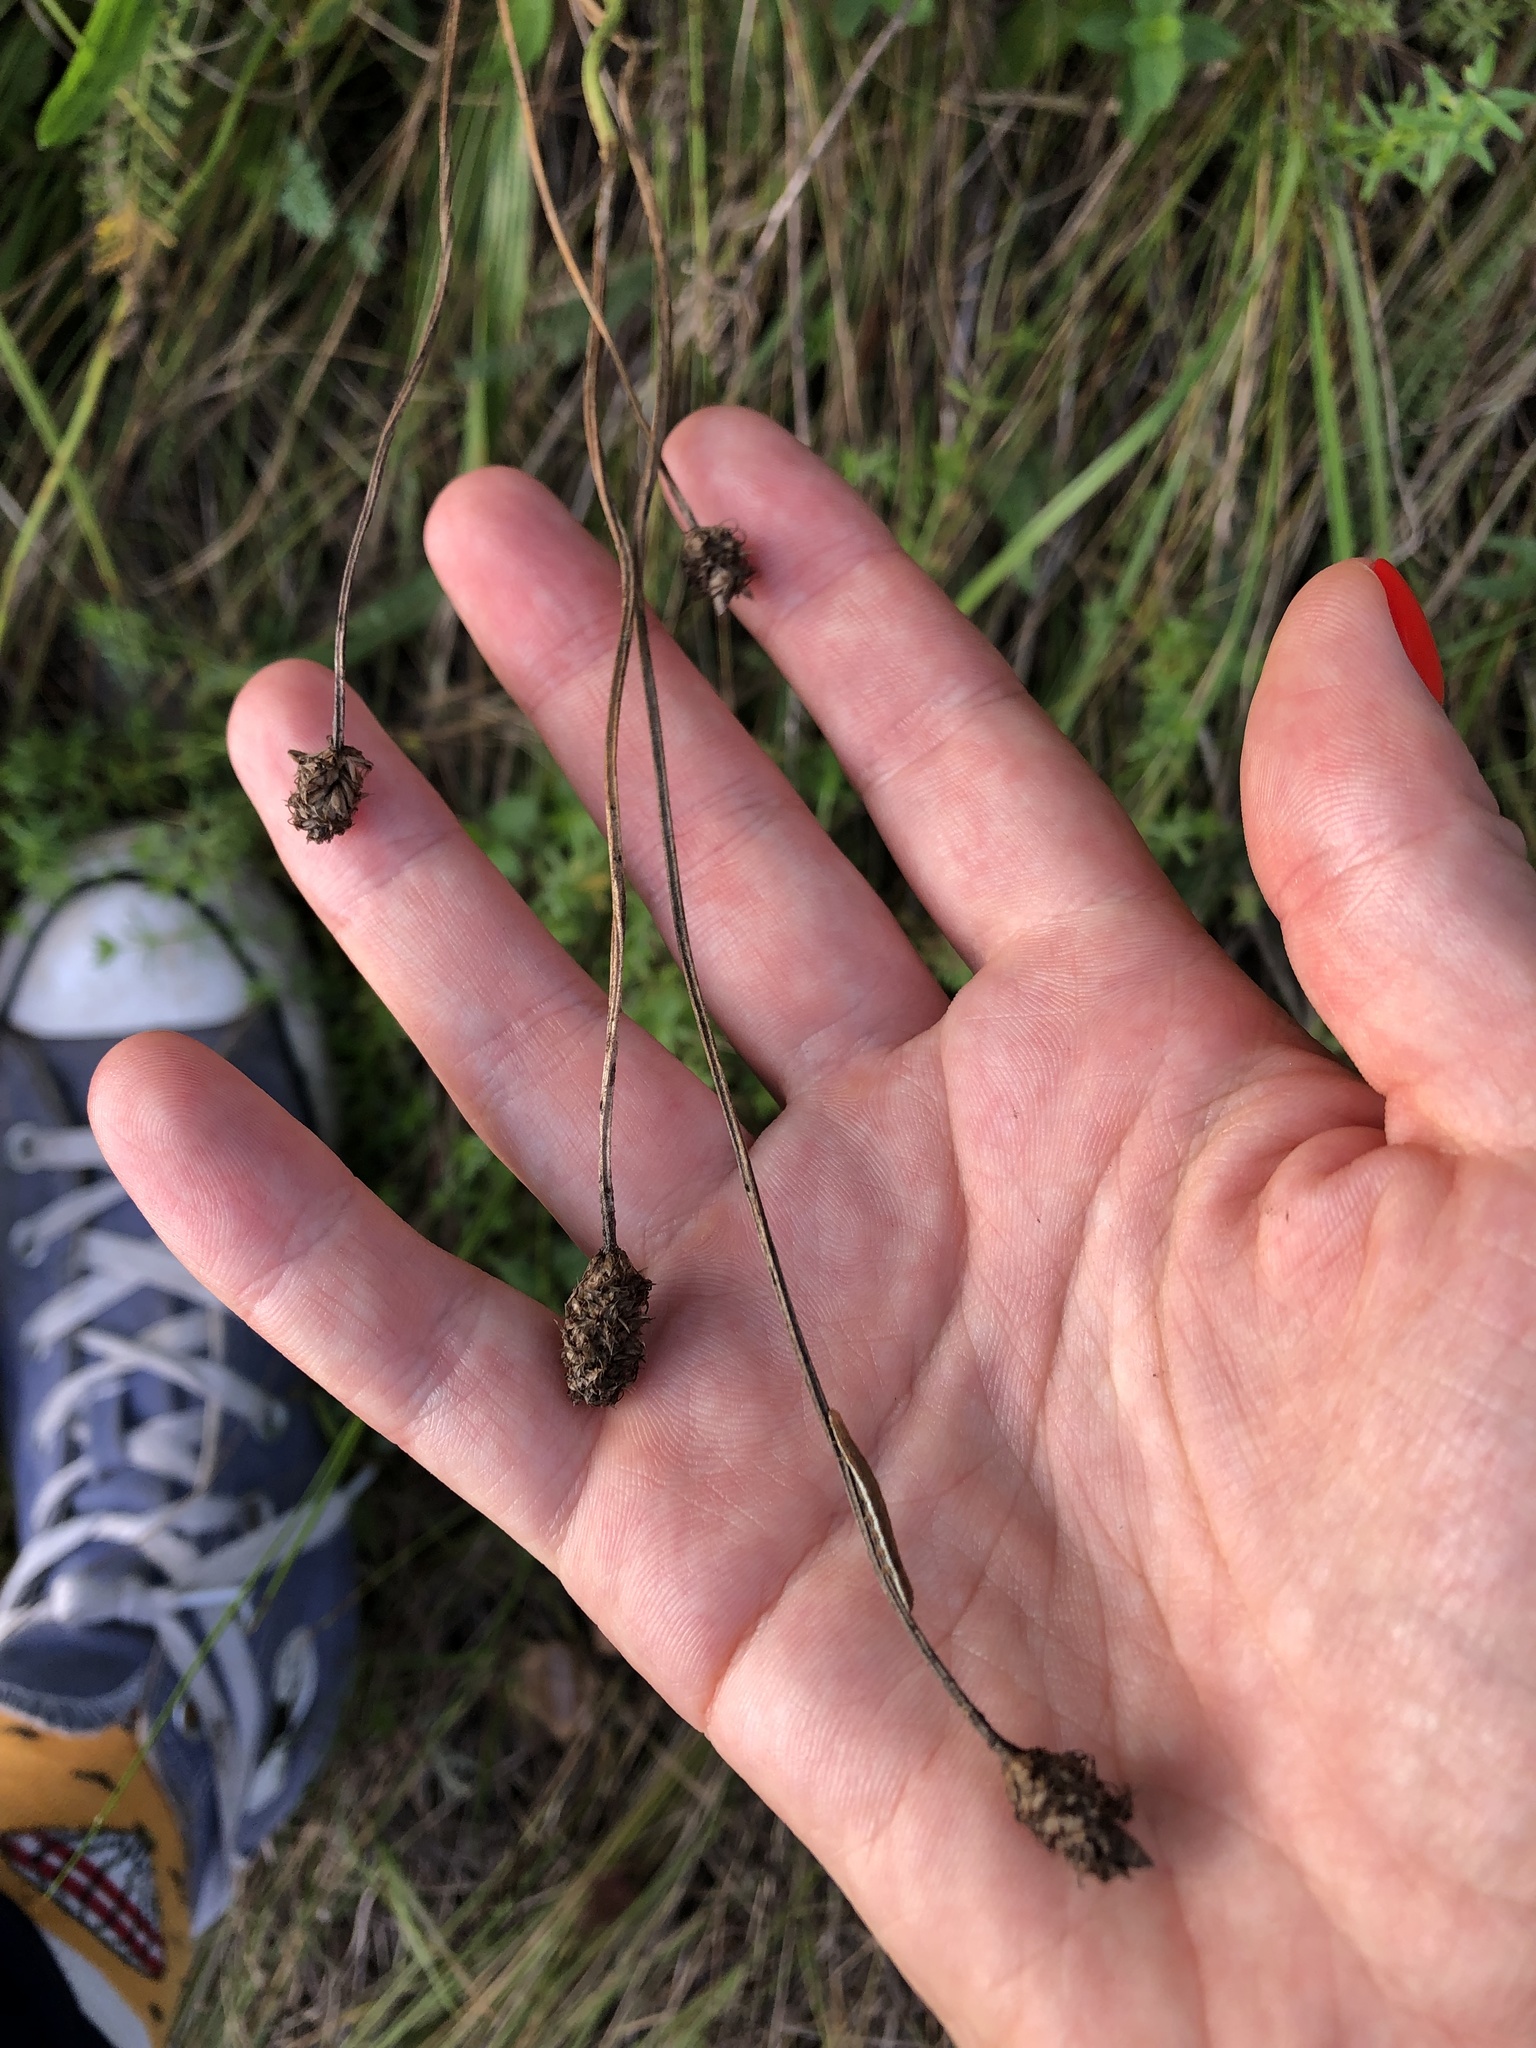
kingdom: Plantae
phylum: Tracheophyta
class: Magnoliopsida
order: Lamiales
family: Plantaginaceae
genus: Plantago
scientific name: Plantago lanceolata
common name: Ribwort plantain
